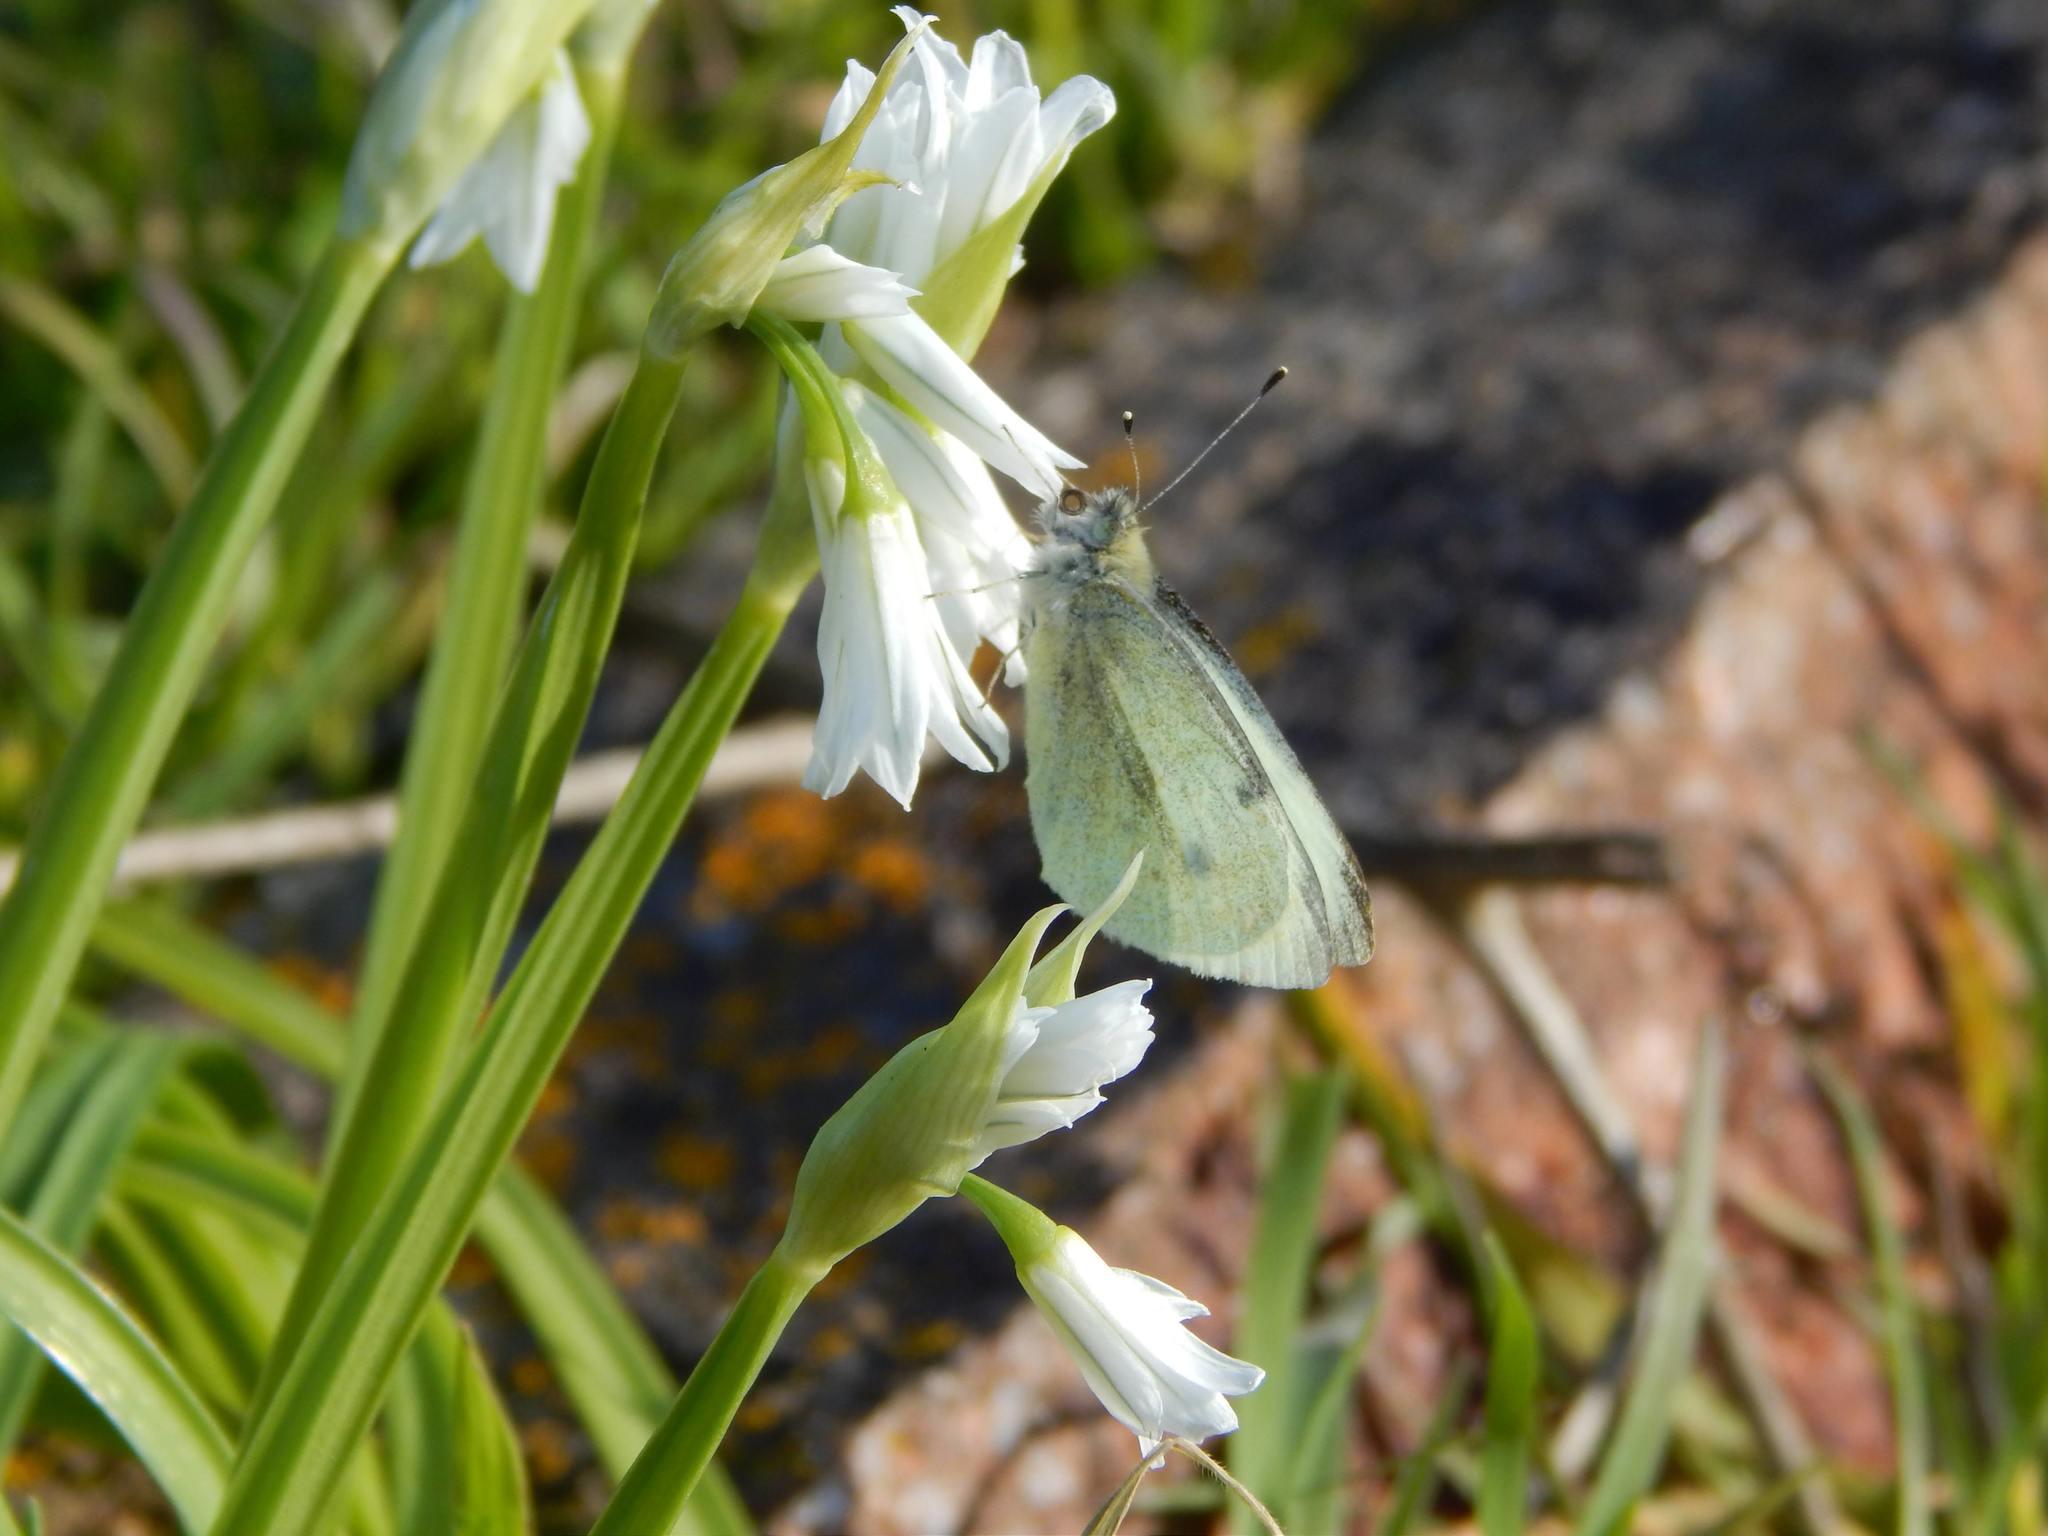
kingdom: Animalia
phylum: Arthropoda
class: Insecta
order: Lepidoptera
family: Pieridae
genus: Pieris
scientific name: Pieris rapae
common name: Small white
